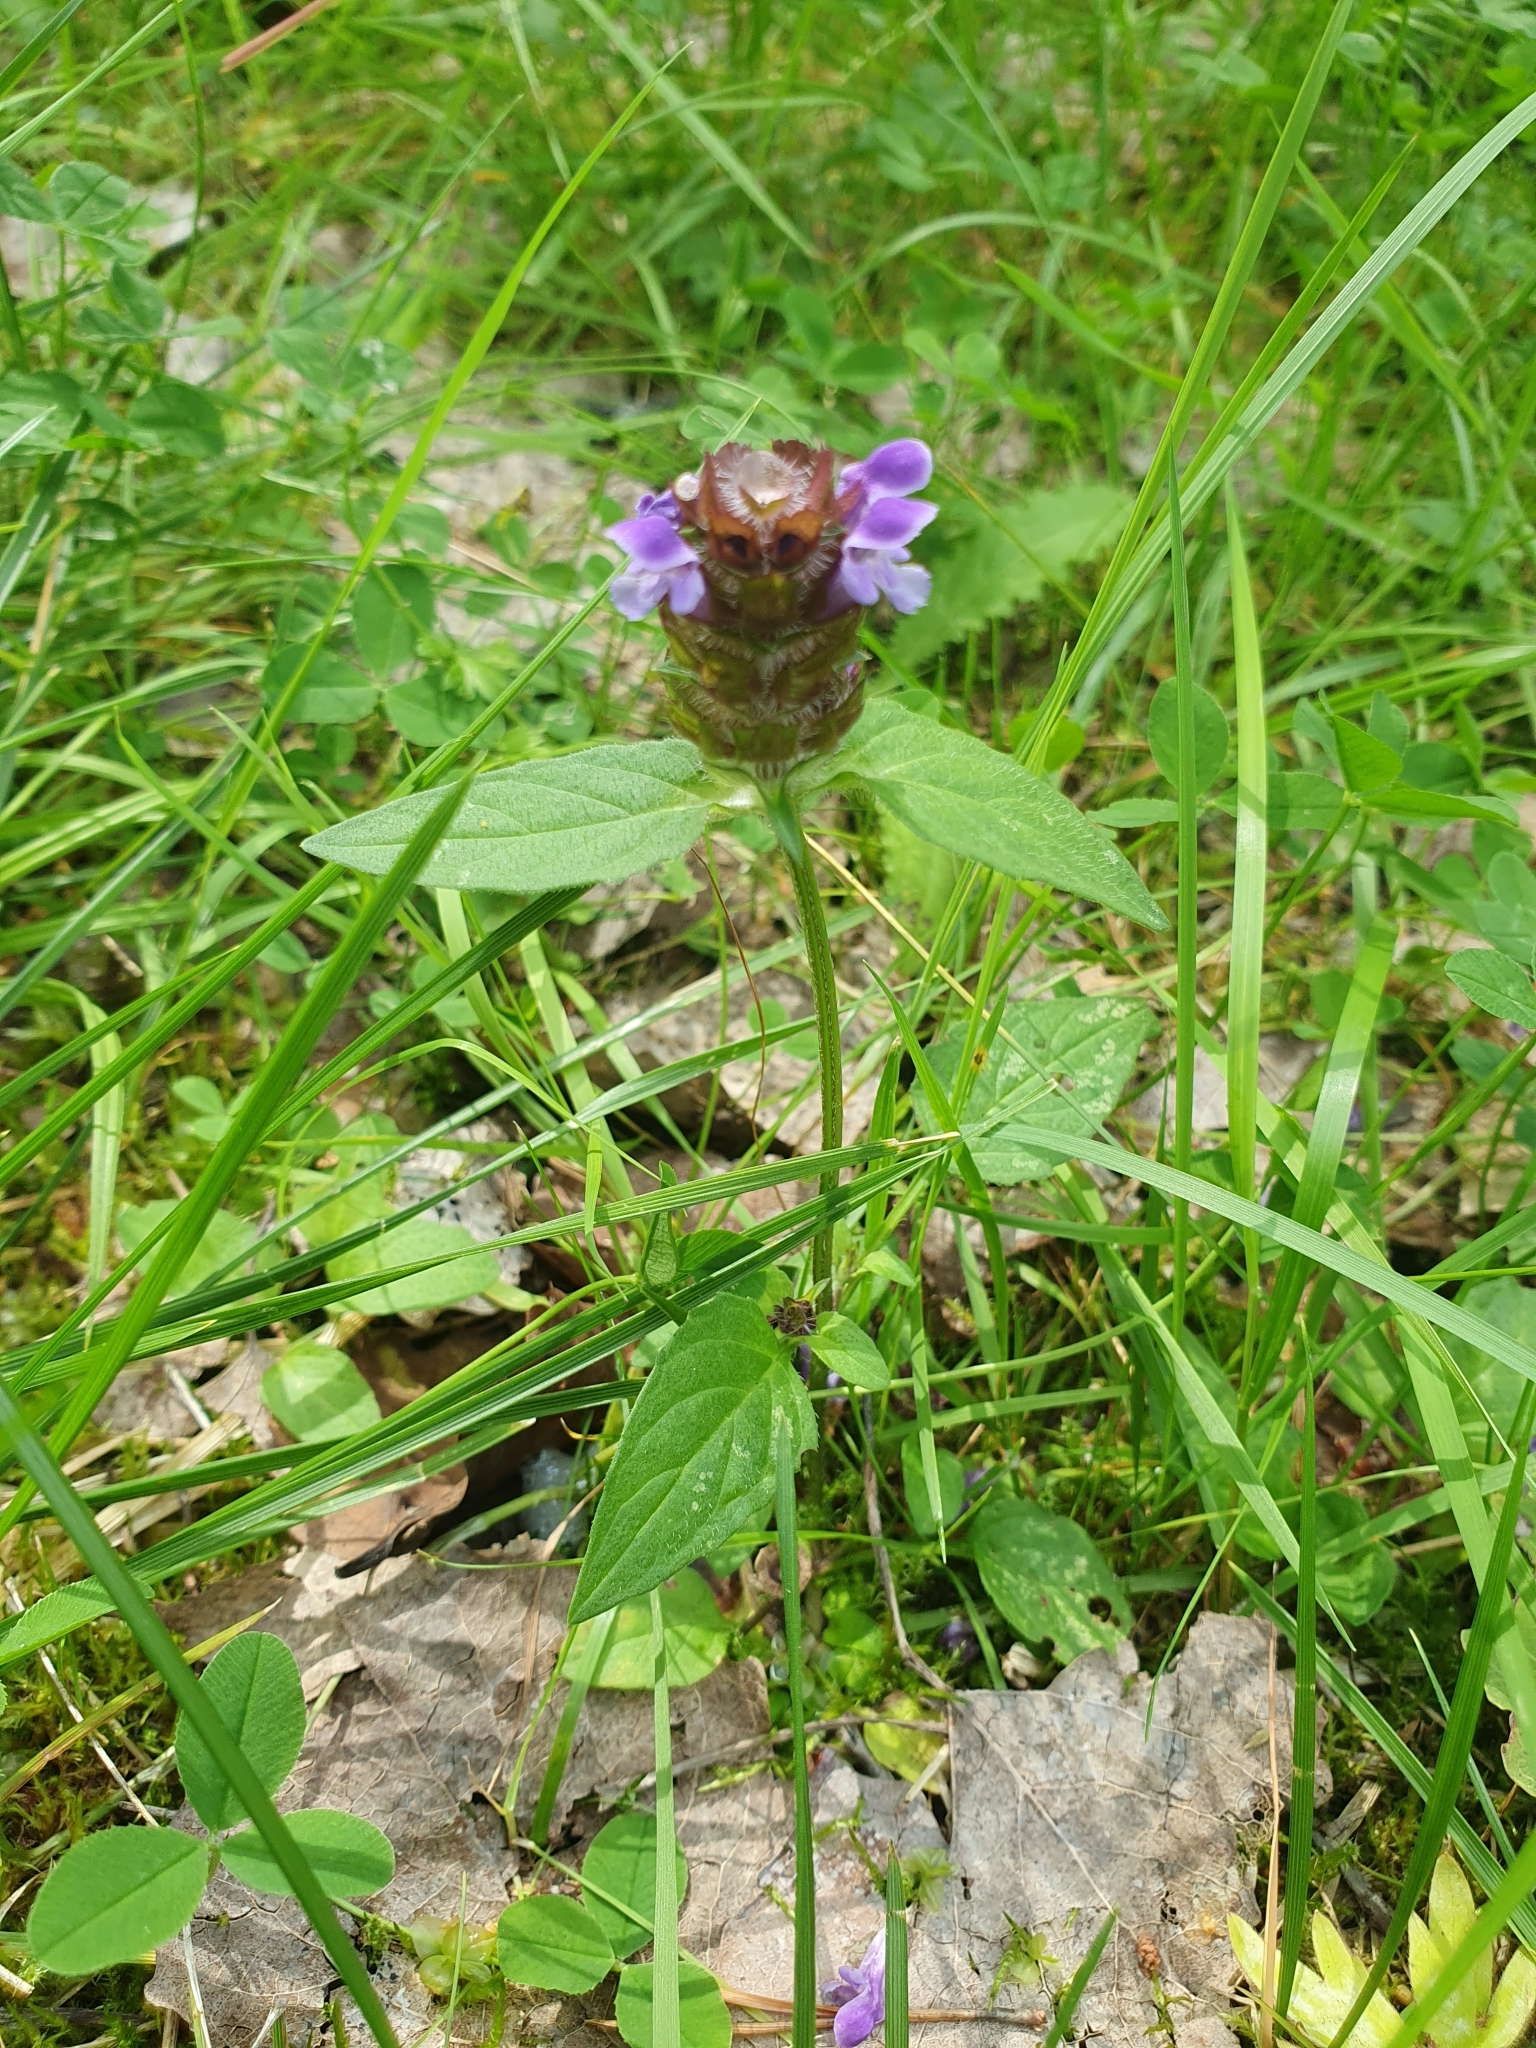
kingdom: Plantae
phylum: Tracheophyta
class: Magnoliopsida
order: Lamiales
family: Lamiaceae
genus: Prunella
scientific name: Prunella vulgaris
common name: Heal-all
